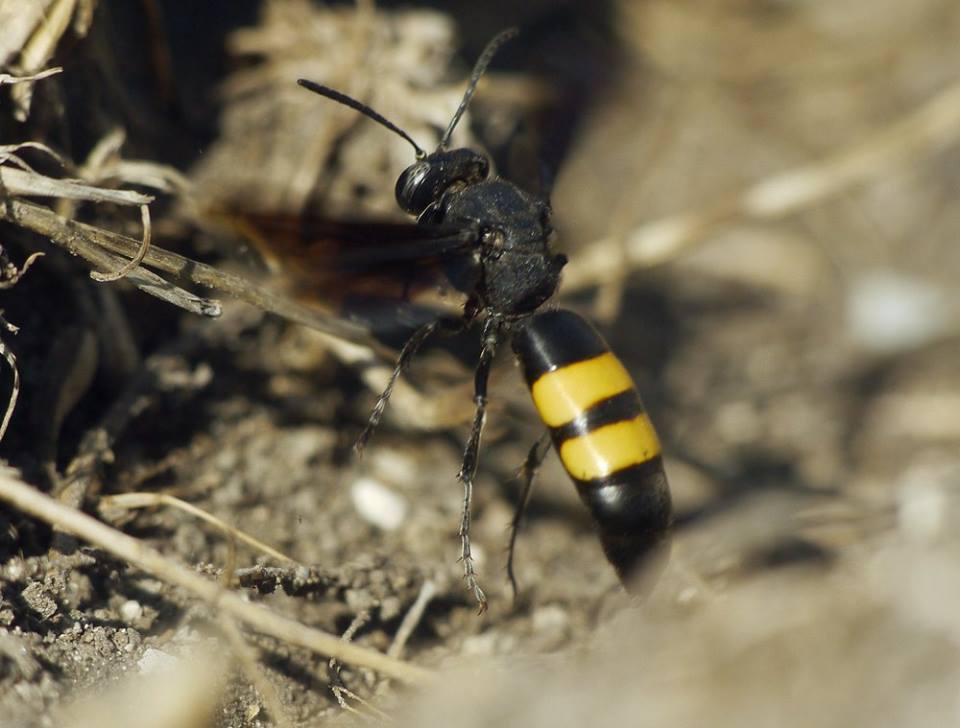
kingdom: Animalia
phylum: Arthropoda
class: Insecta
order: Hymenoptera
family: Crabronidae
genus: Stizoides
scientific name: Stizoides tridentatus
